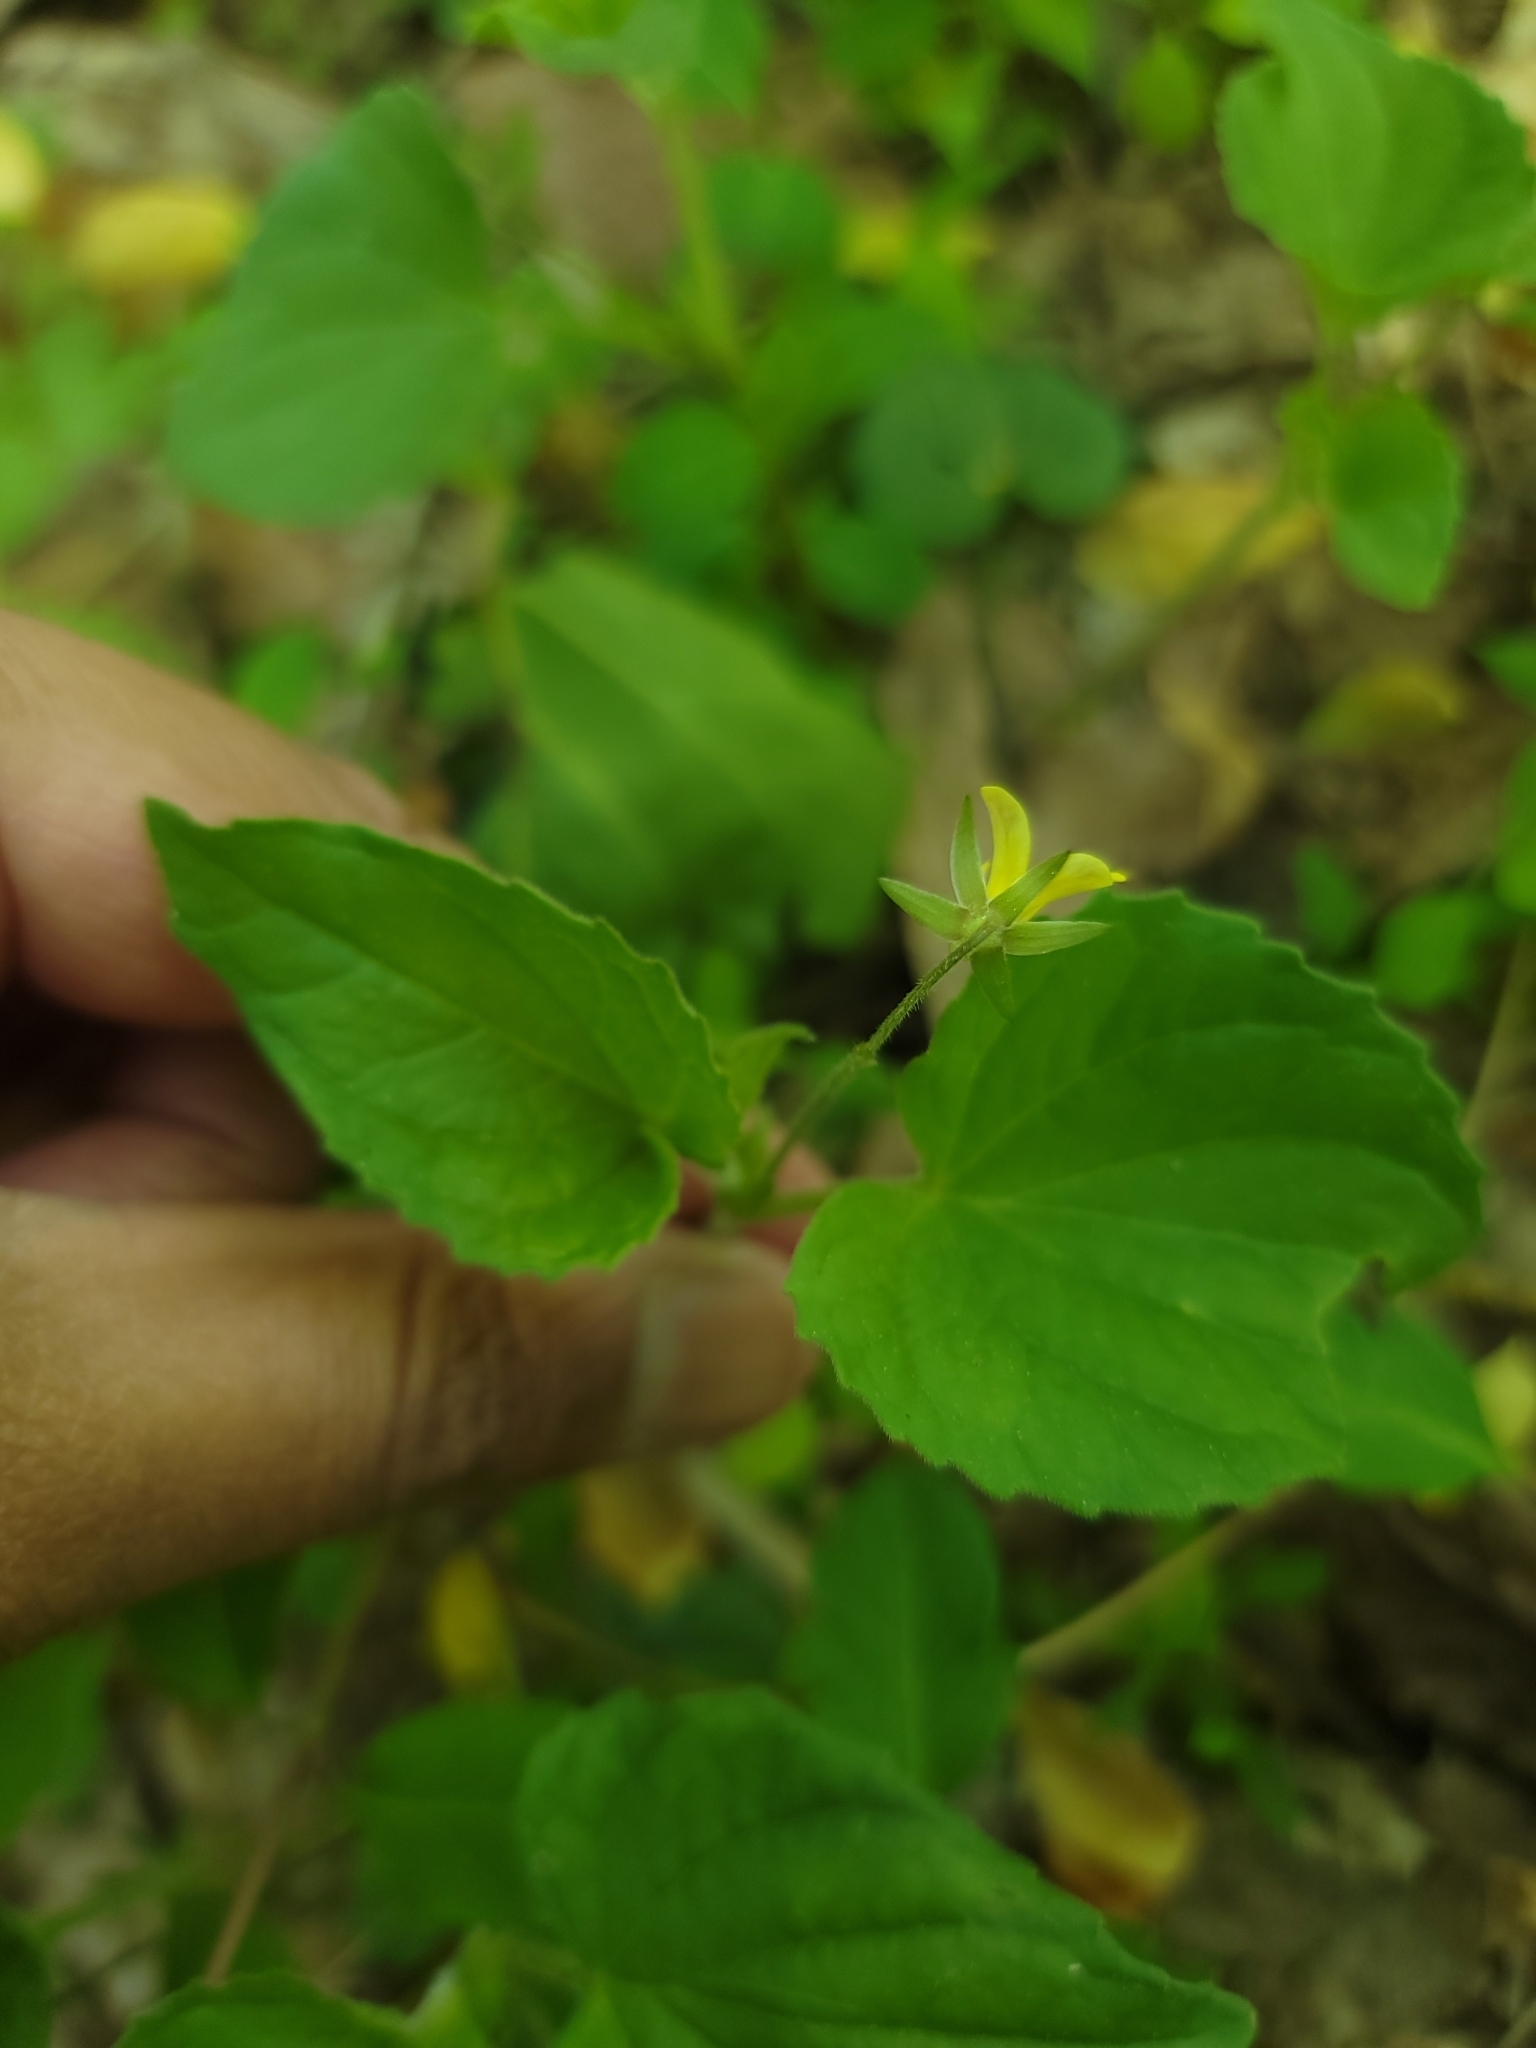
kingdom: Plantae
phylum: Tracheophyta
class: Magnoliopsida
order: Malpighiales
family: Violaceae
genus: Viola
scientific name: Viola eriocarpa
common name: Smooth yellow violet
